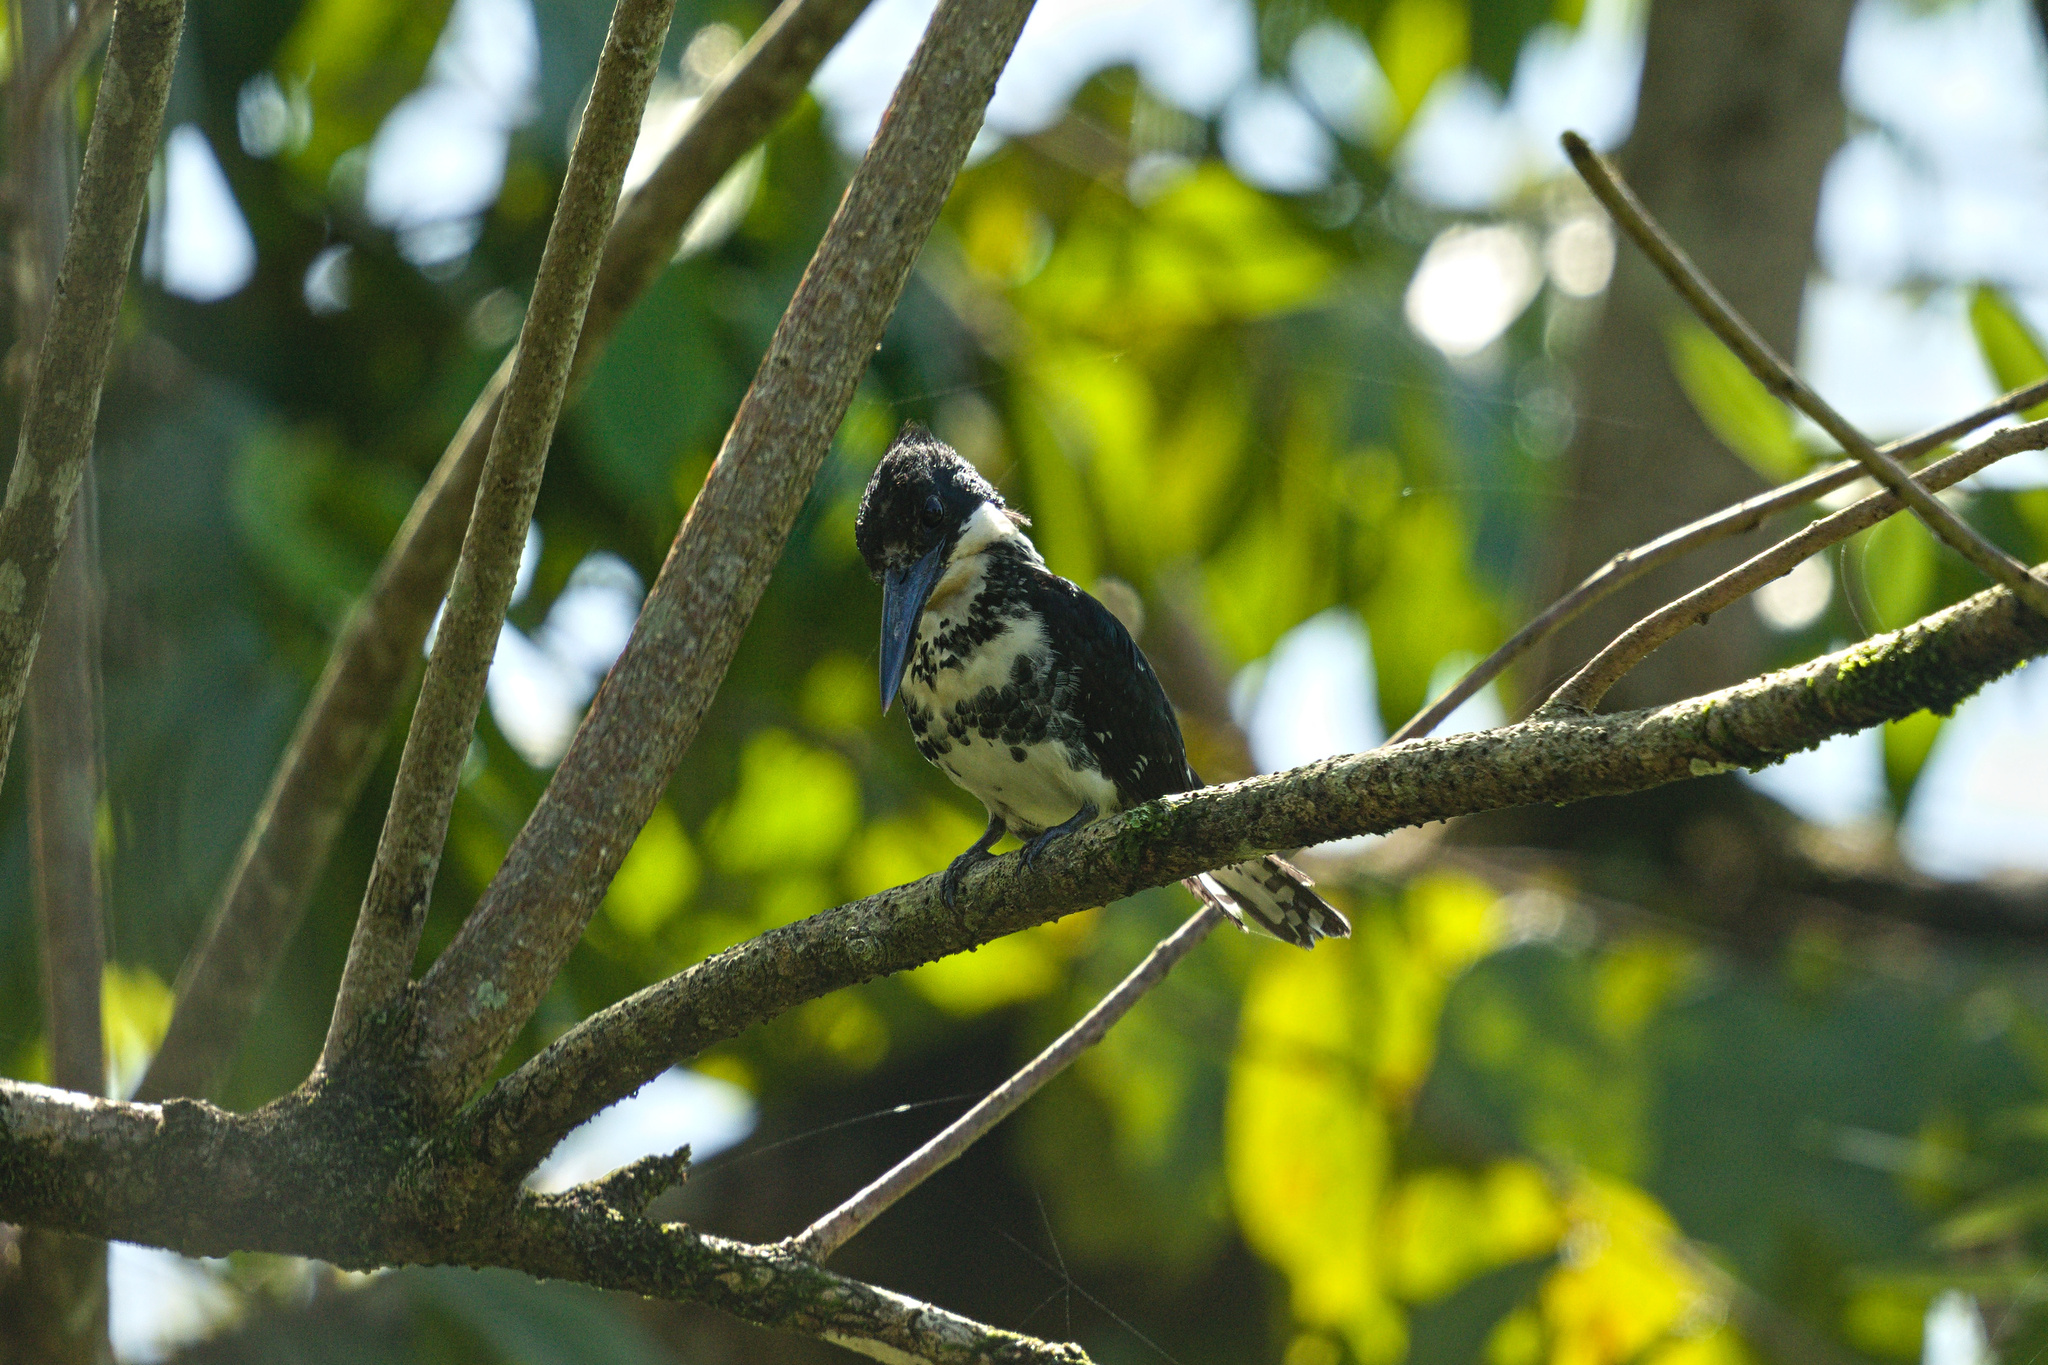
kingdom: Animalia
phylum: Chordata
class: Aves
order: Coraciiformes
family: Alcedinidae
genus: Chloroceryle
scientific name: Chloroceryle americana
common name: Green kingfisher
